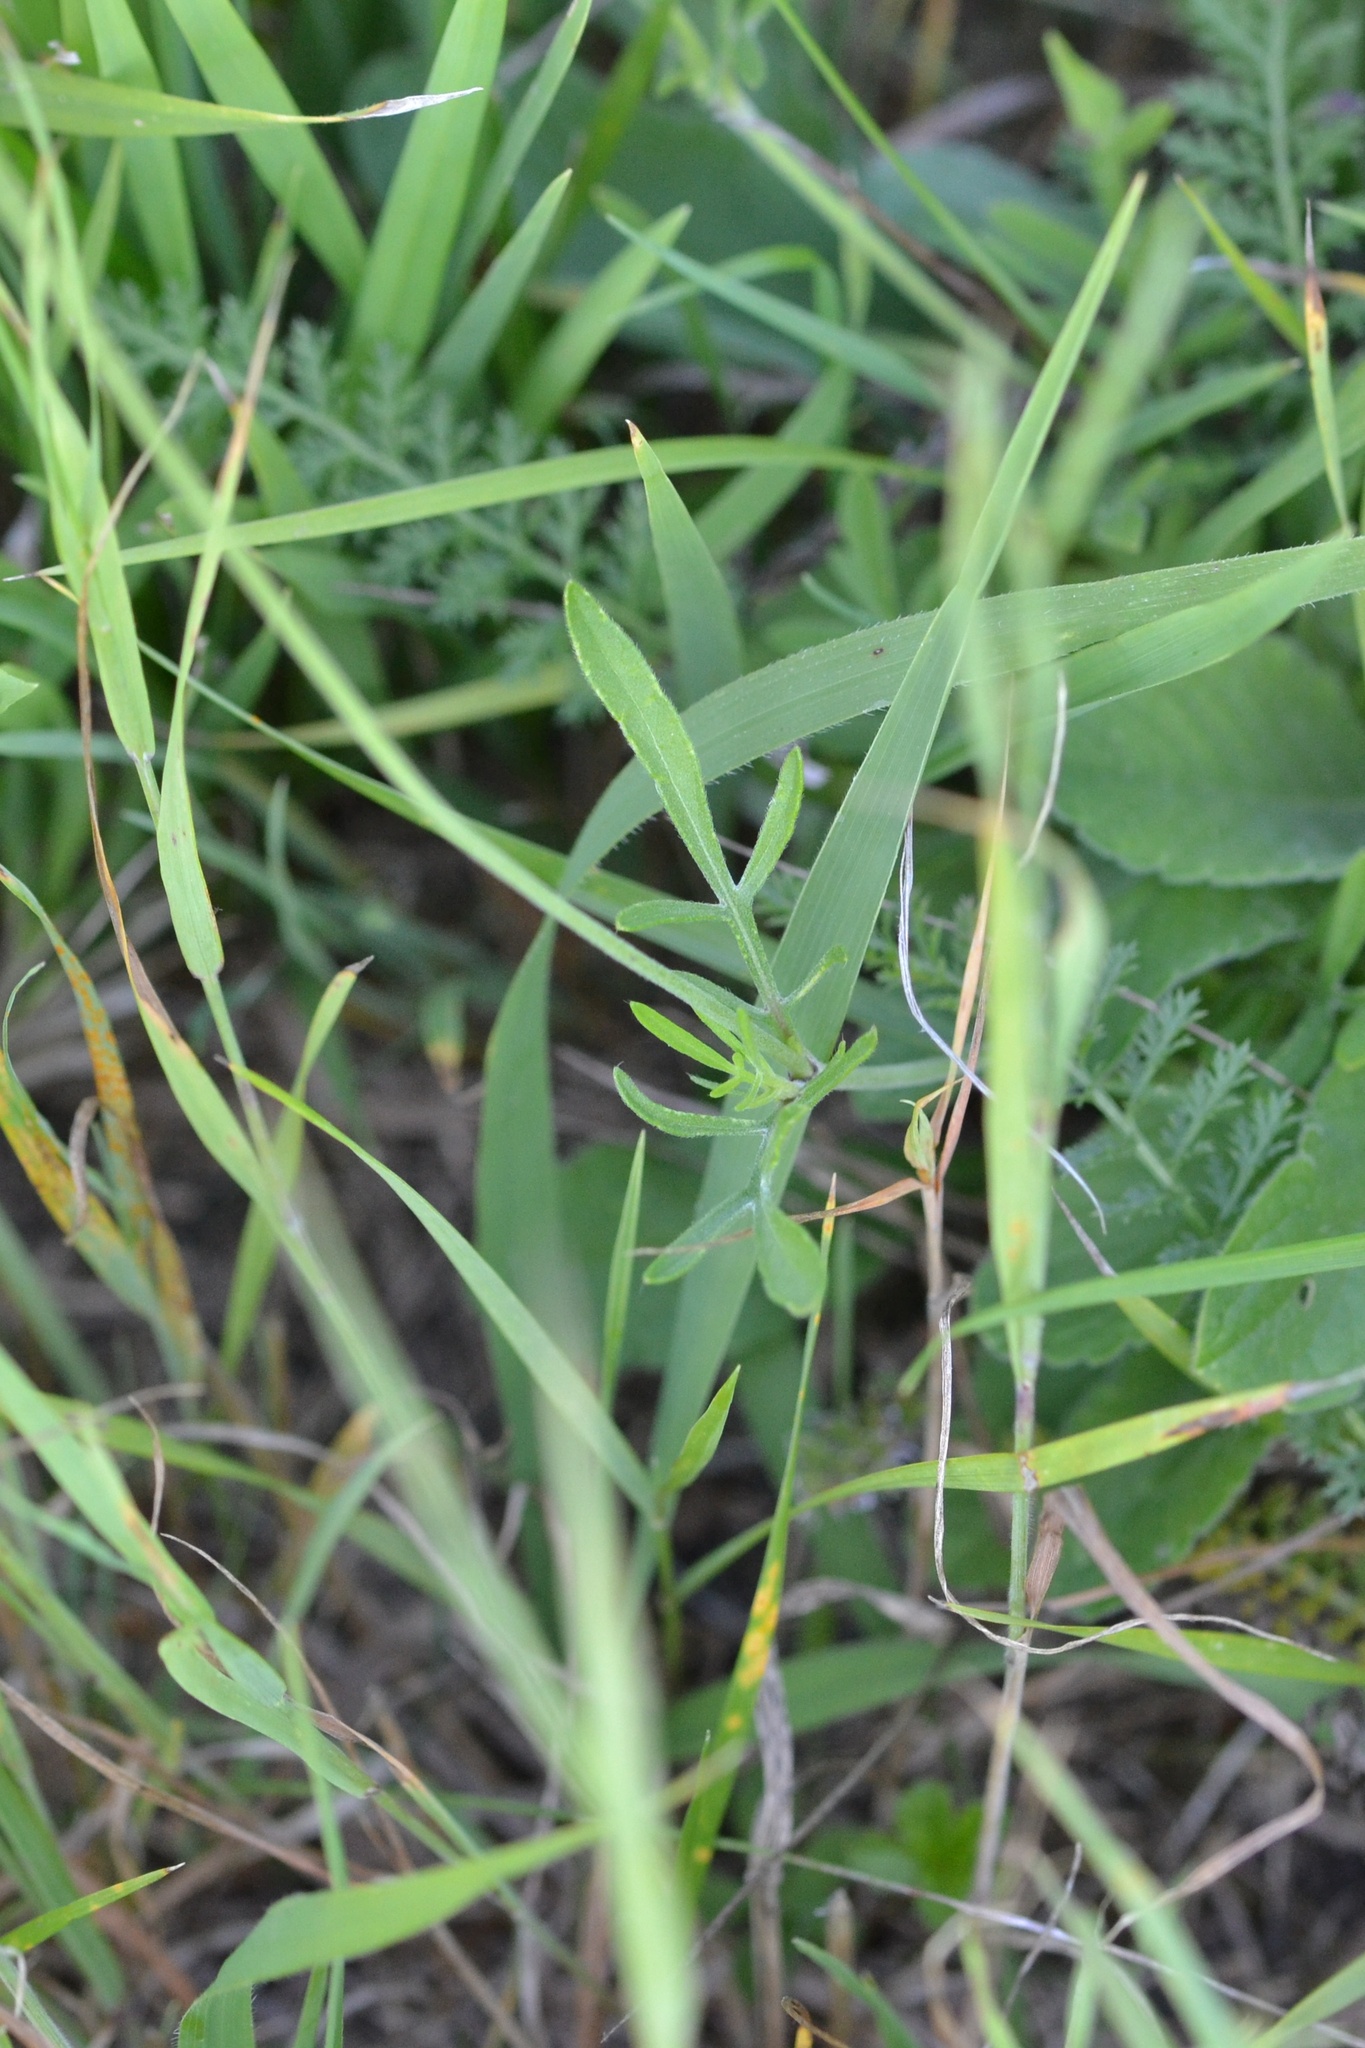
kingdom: Plantae
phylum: Tracheophyta
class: Magnoliopsida
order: Dipsacales
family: Caprifoliaceae
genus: Scabiosa
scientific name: Scabiosa ochroleuca
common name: Cream pincushions
